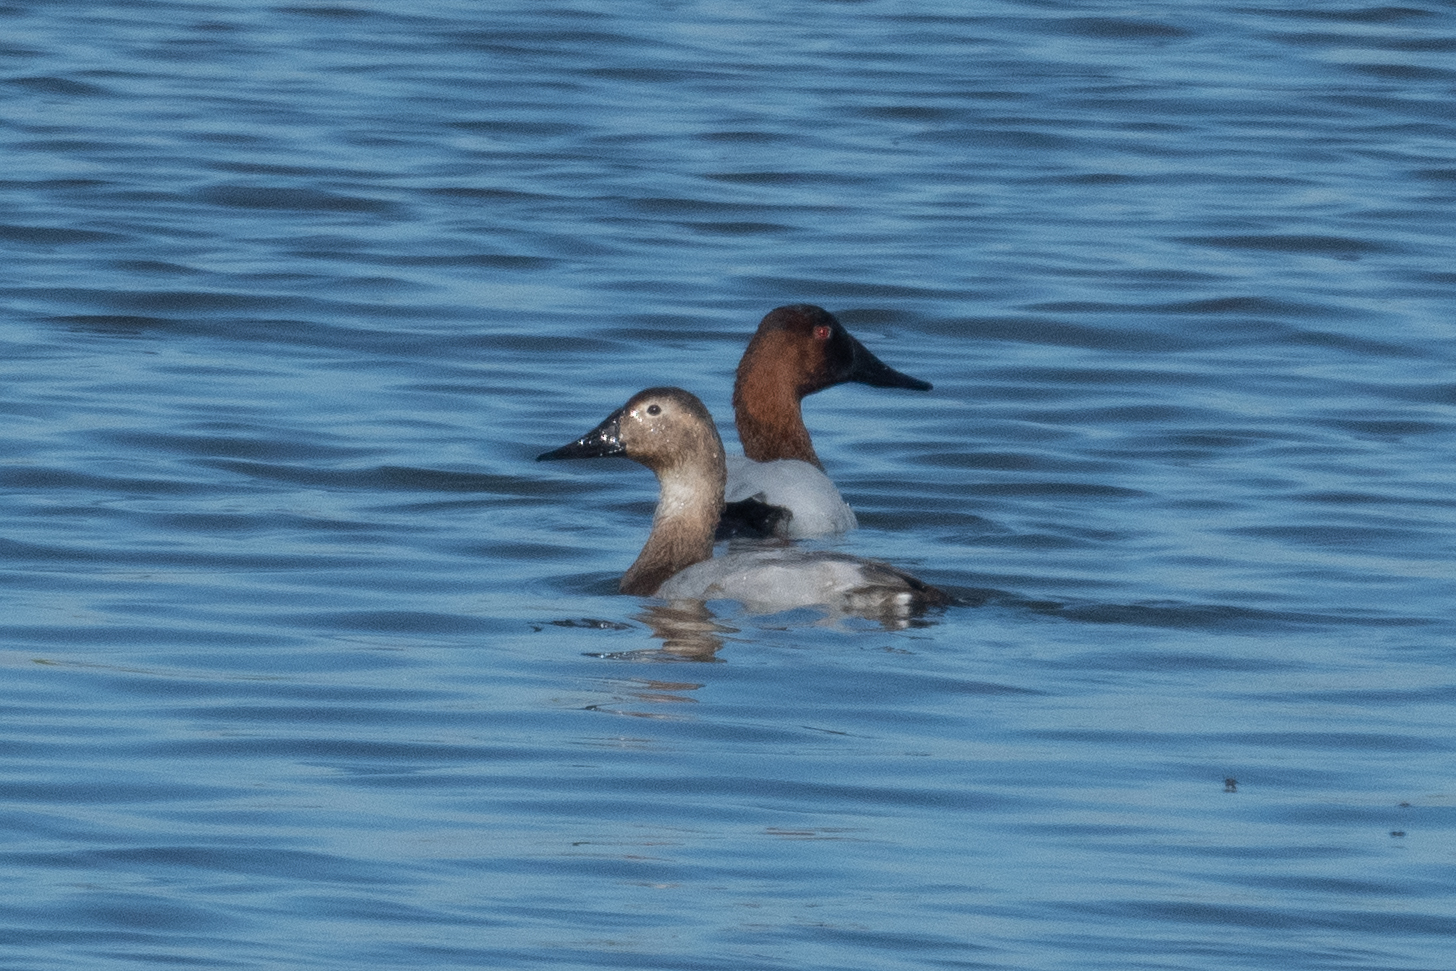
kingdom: Animalia
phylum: Chordata
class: Aves
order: Anseriformes
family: Anatidae
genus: Aythya
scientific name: Aythya valisineria
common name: Canvasback
